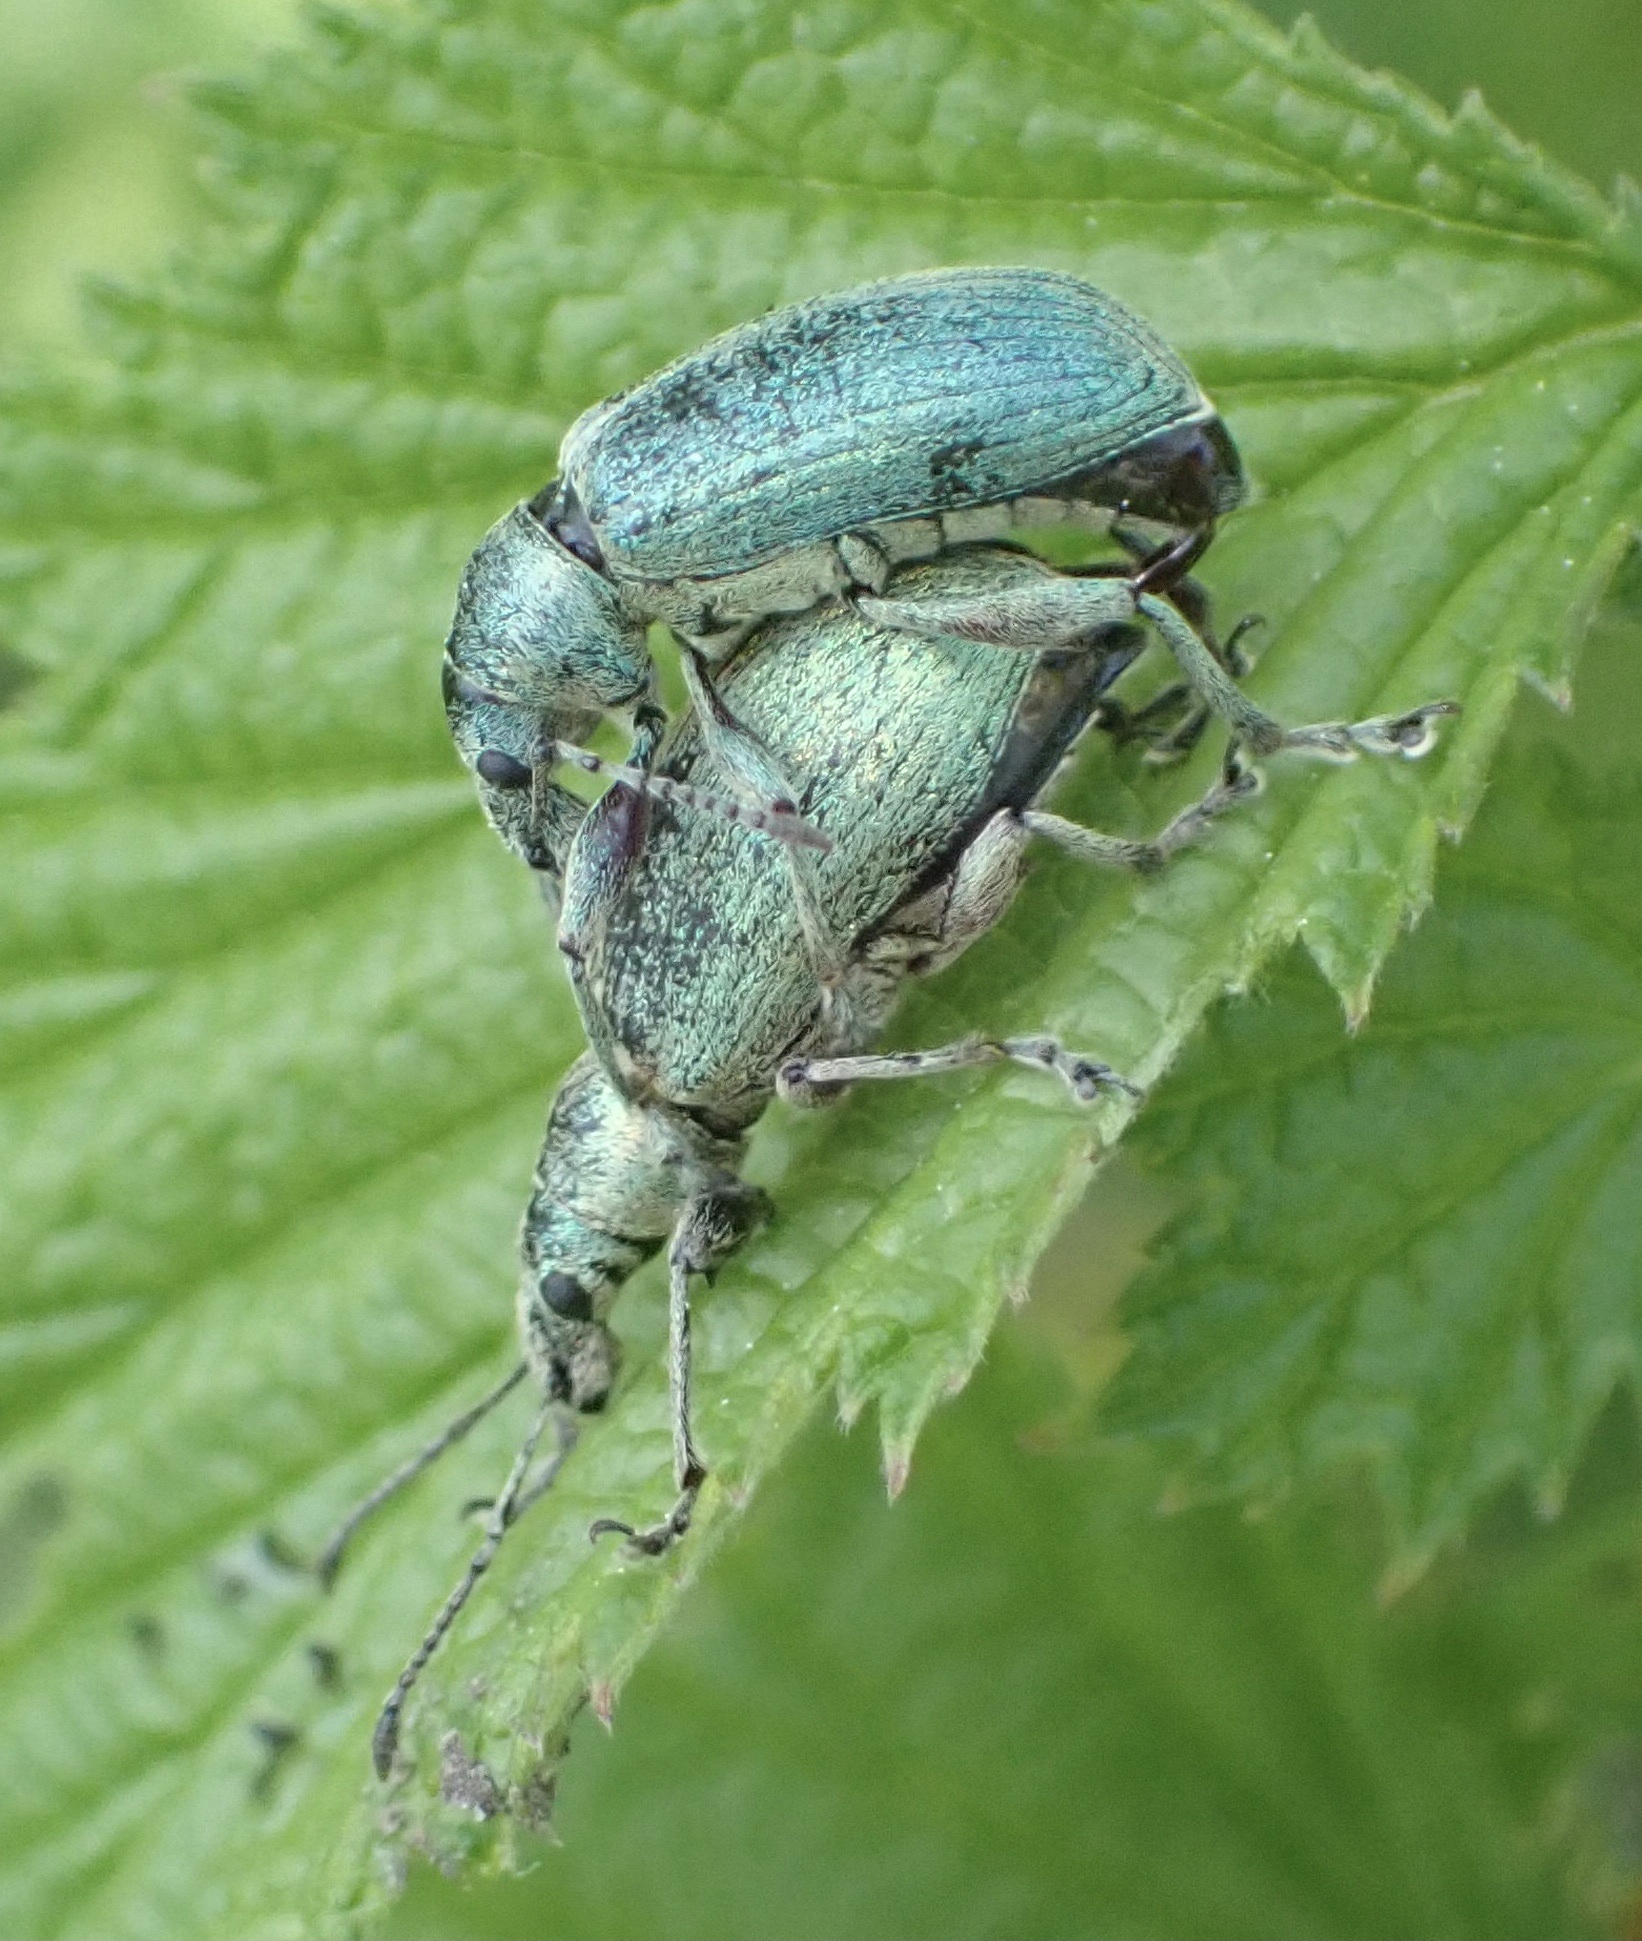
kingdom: Animalia
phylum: Arthropoda
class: Insecta
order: Coleoptera
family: Curculionidae
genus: Phyllobius
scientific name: Phyllobius pomaceus
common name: Green nettle weevil
